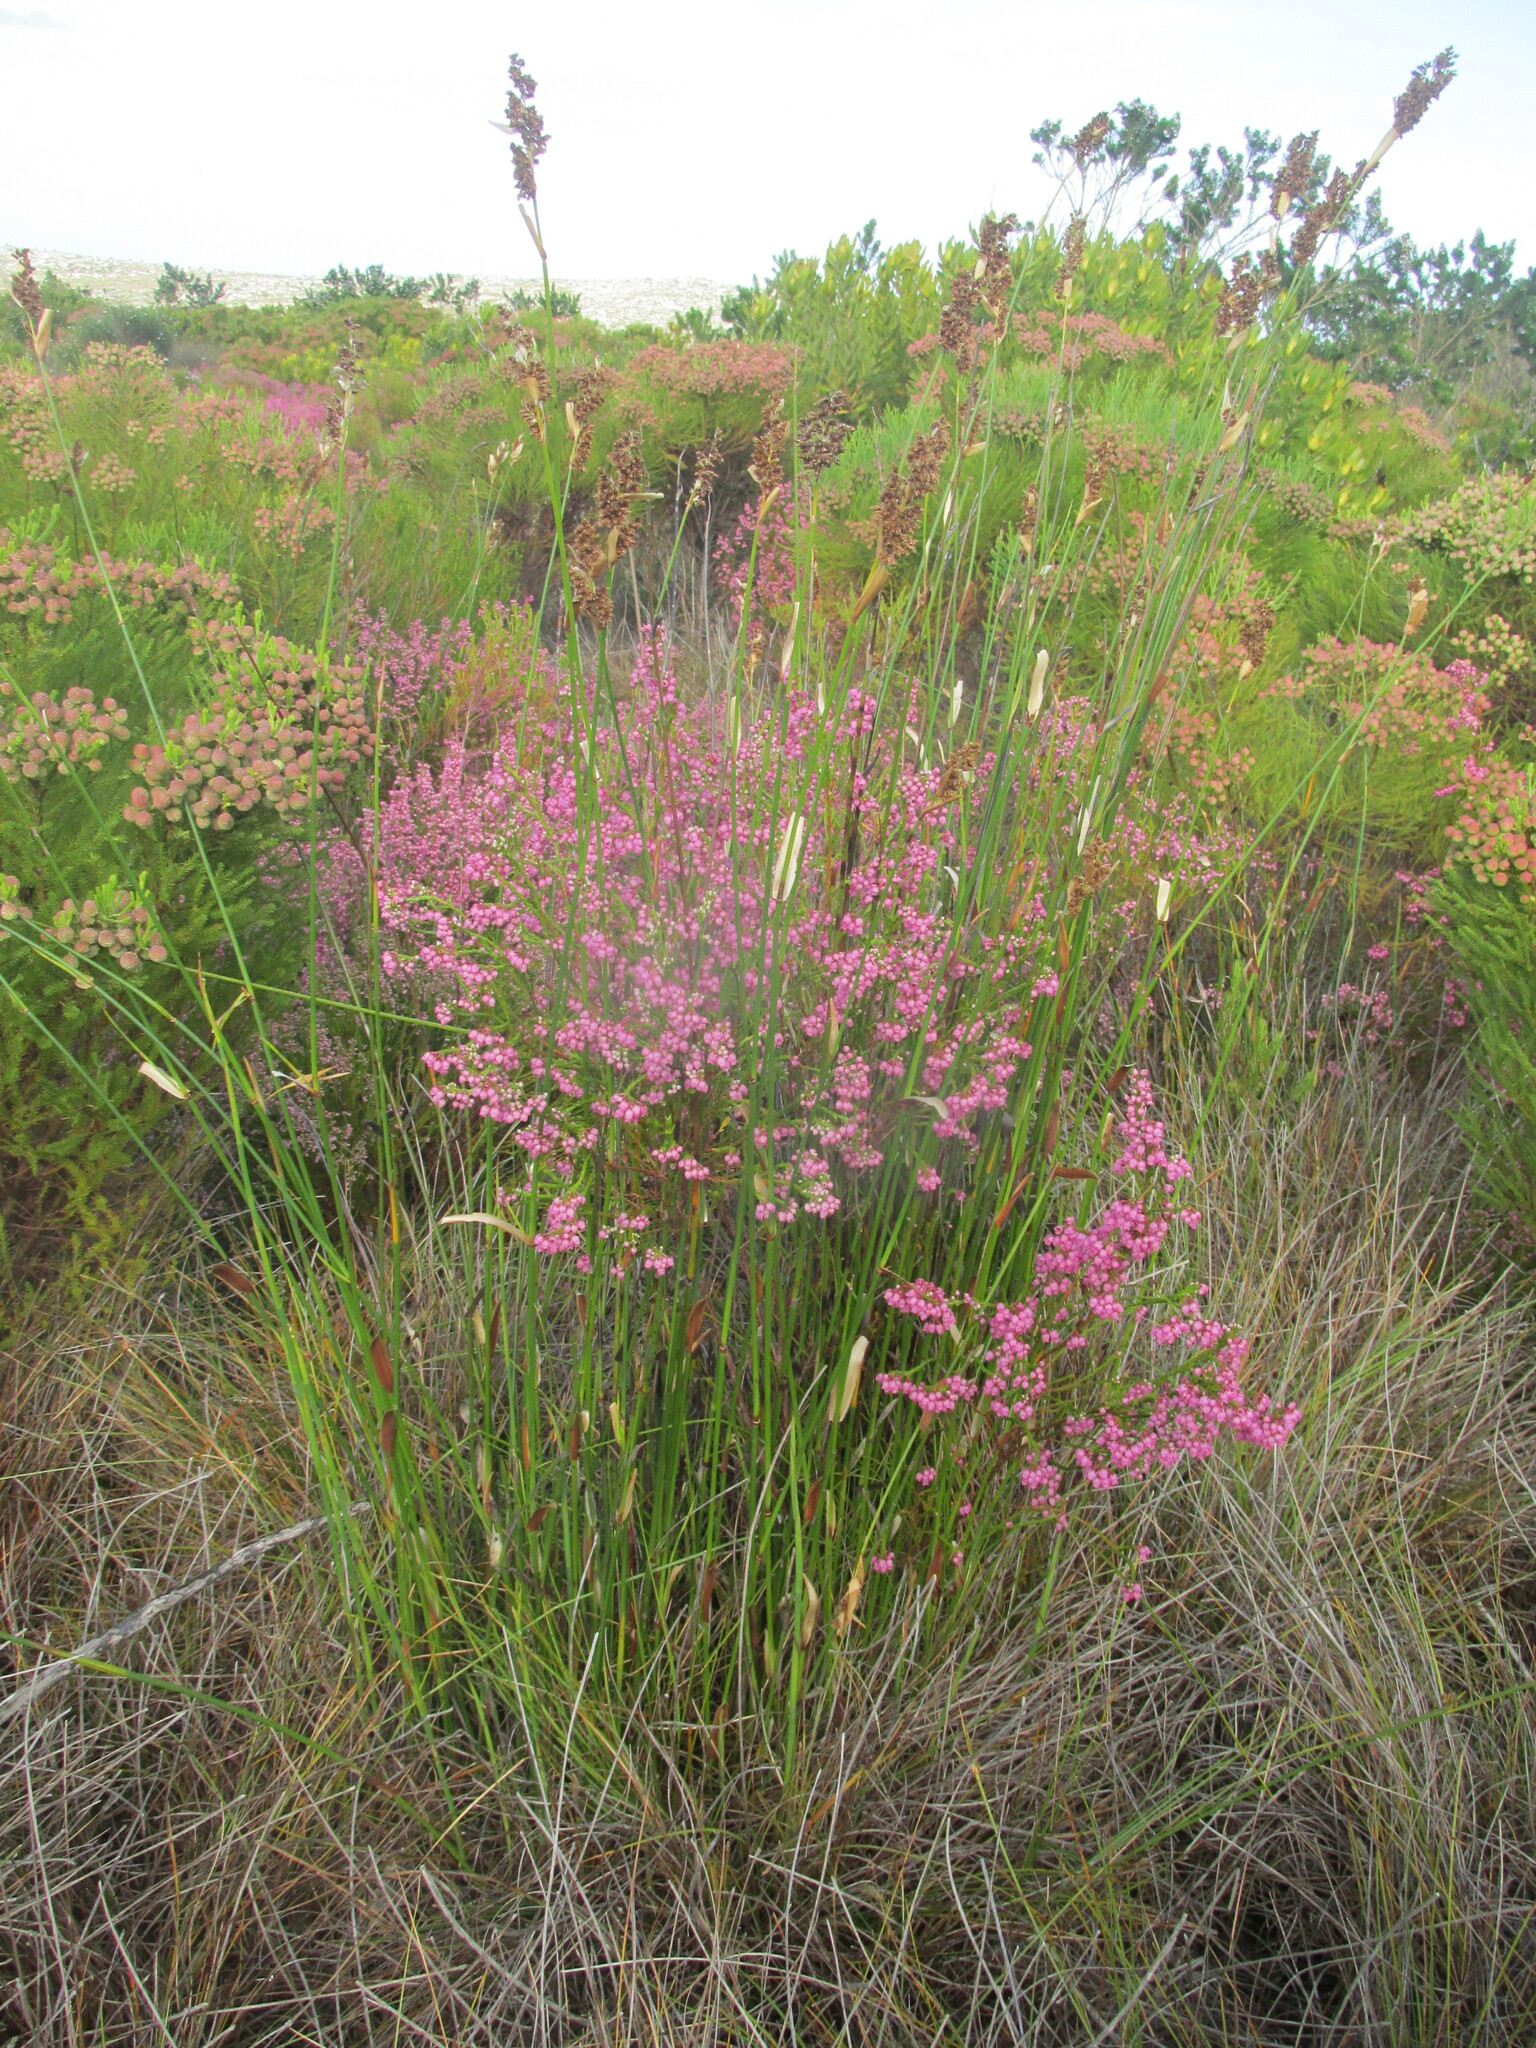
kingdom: Plantae
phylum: Tracheophyta
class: Magnoliopsida
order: Ericales
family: Ericaceae
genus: Erica
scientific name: Erica laeta
